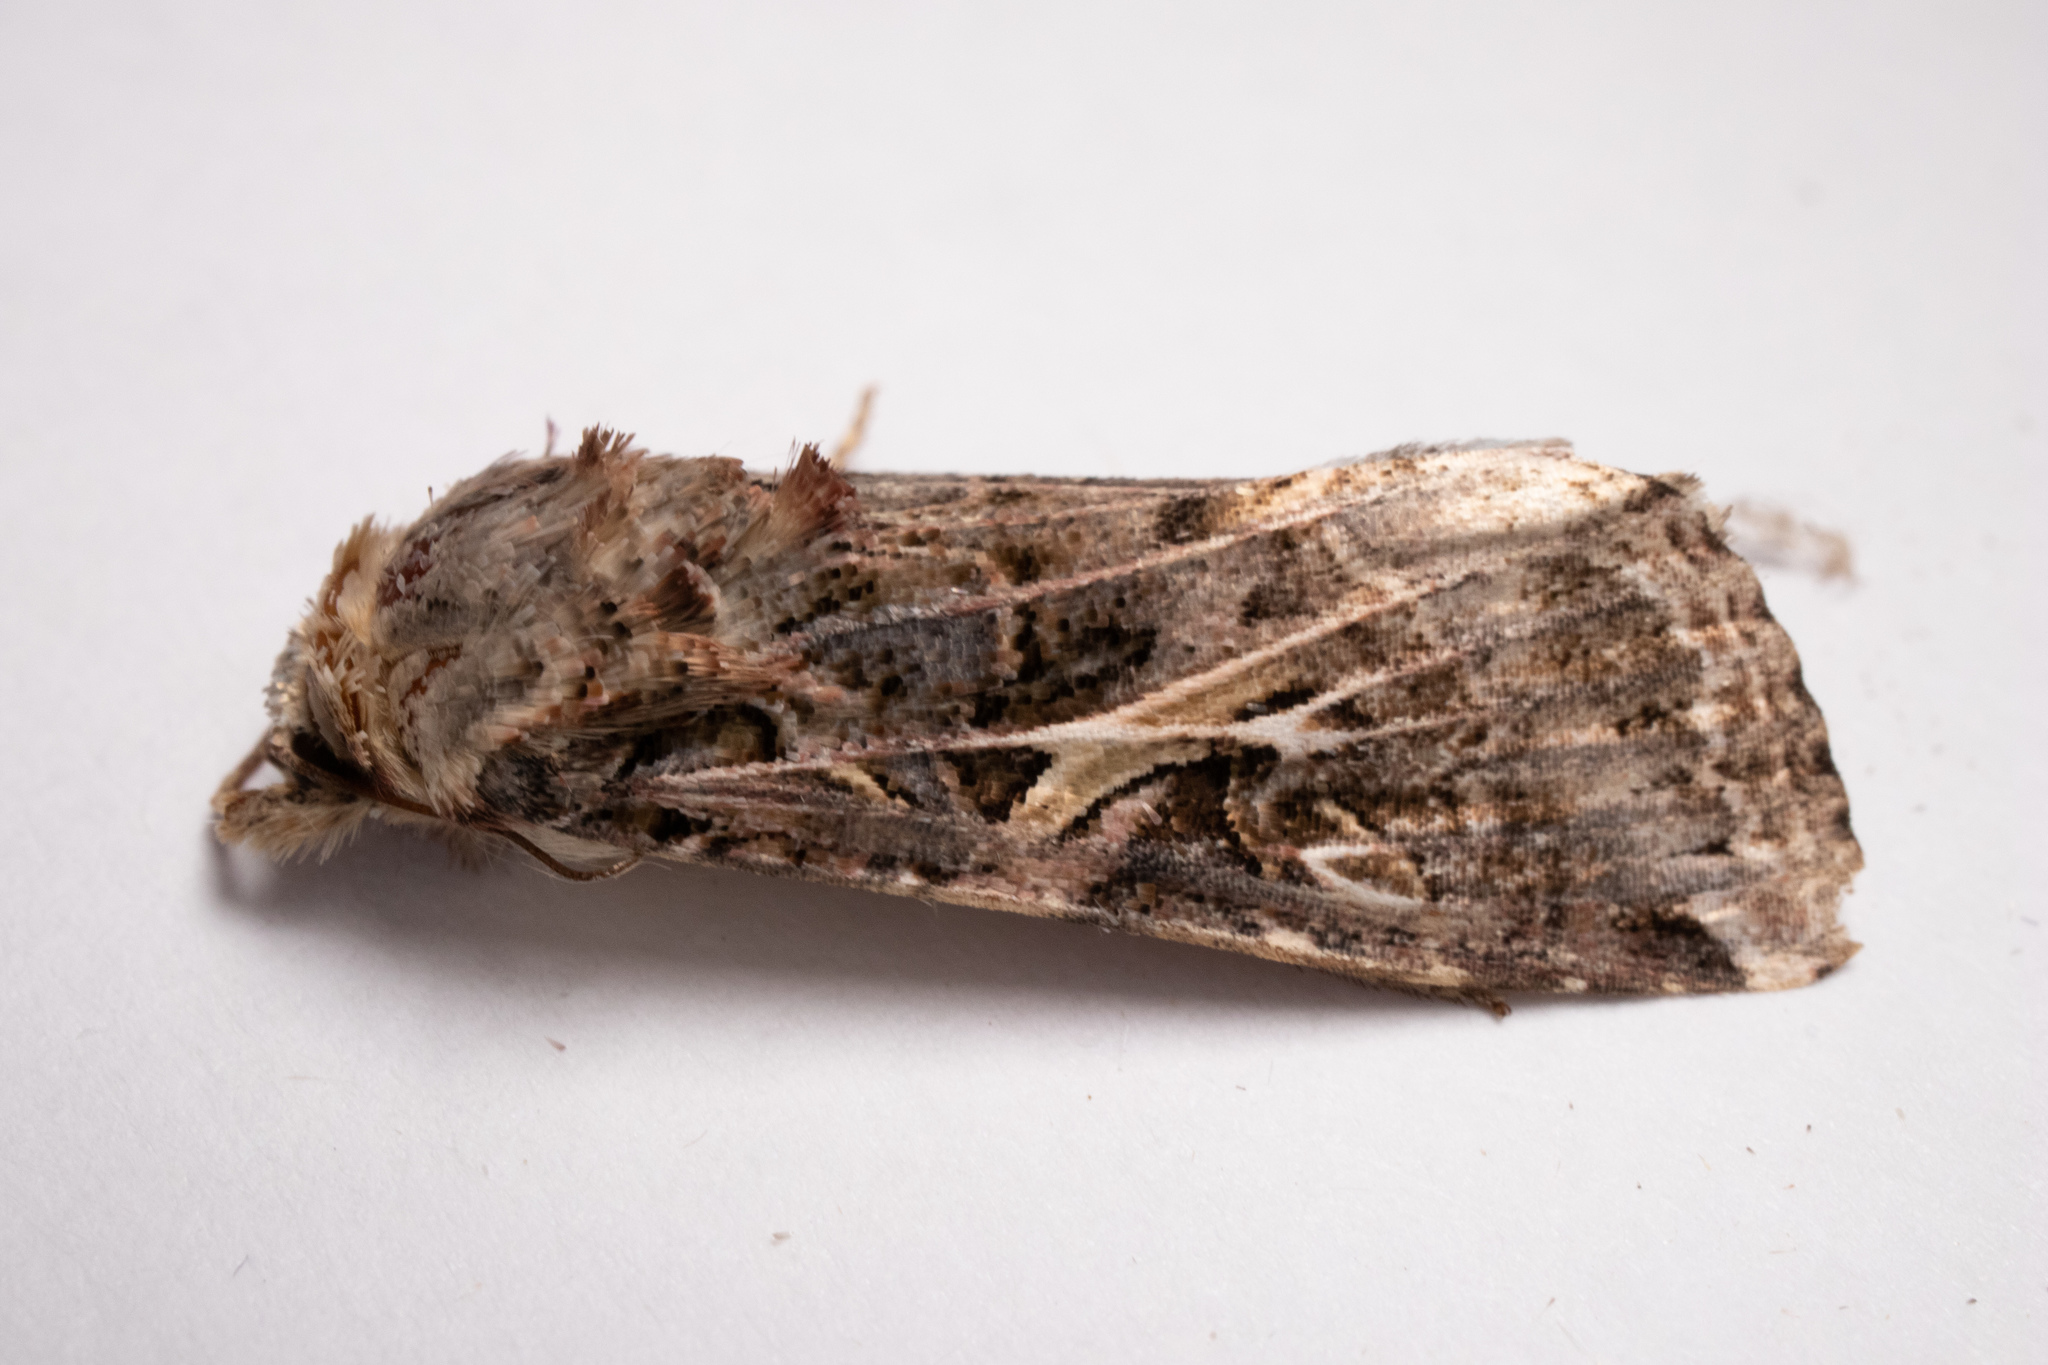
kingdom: Animalia
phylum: Arthropoda
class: Insecta
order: Lepidoptera
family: Noctuidae
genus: Spodoptera
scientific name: Spodoptera ornithogalli
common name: Yellow-striped armyworm
